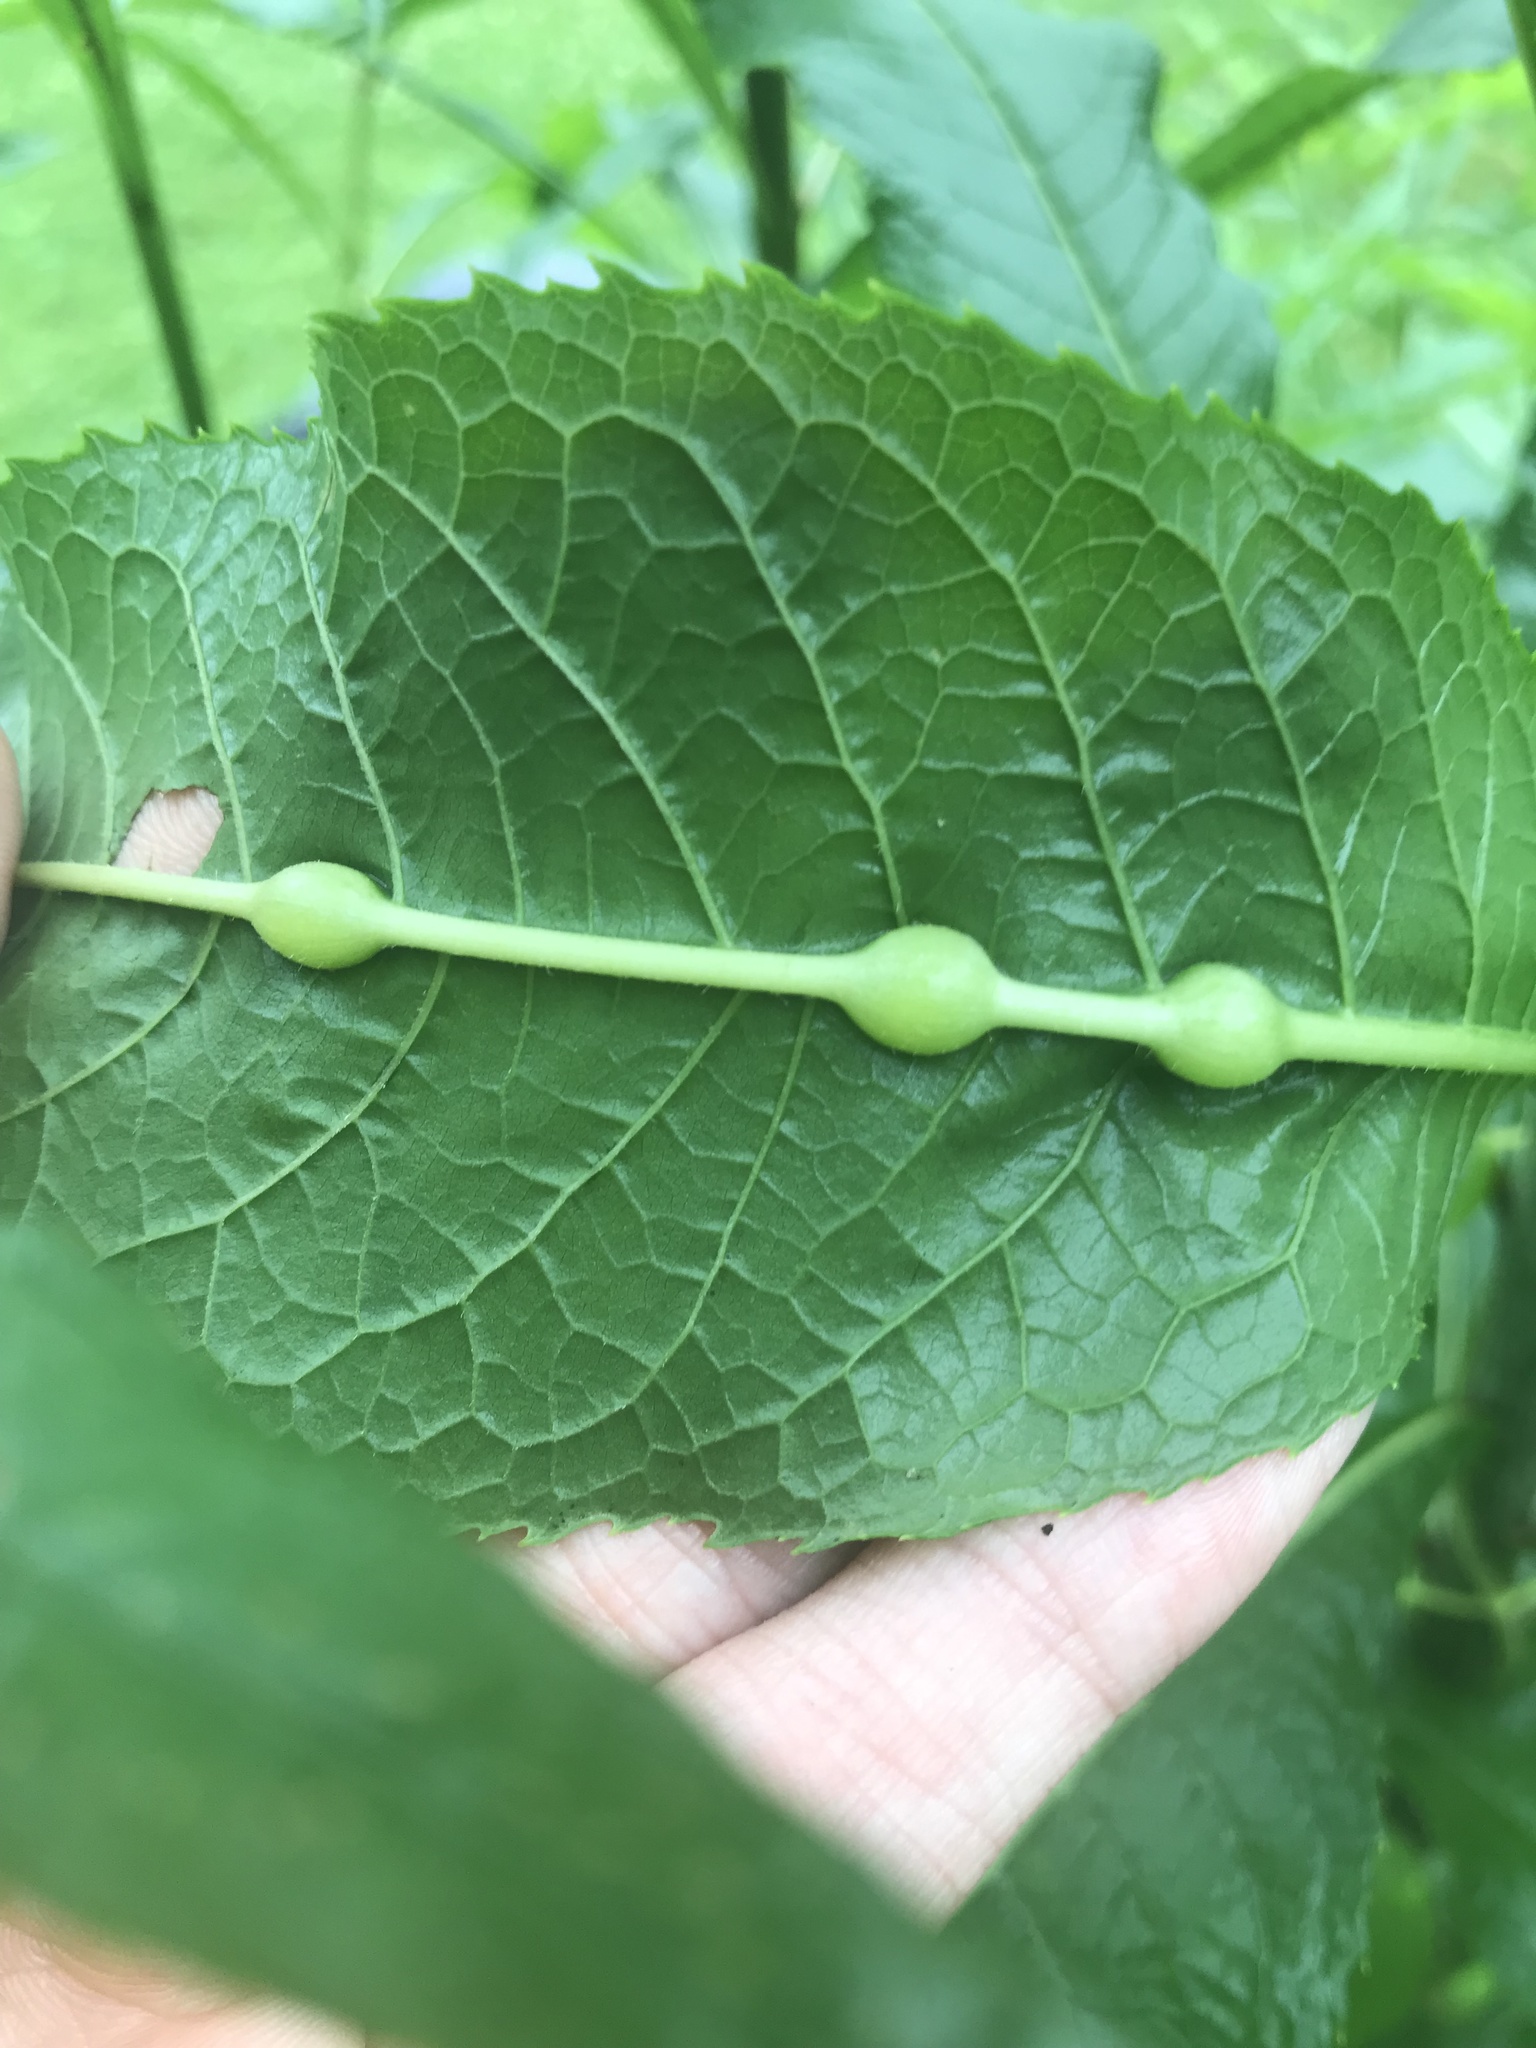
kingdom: Animalia
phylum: Arthropoda
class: Insecta
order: Diptera
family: Cecidomyiidae
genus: Neolasioptera
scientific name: Neolasioptera vernoniae
